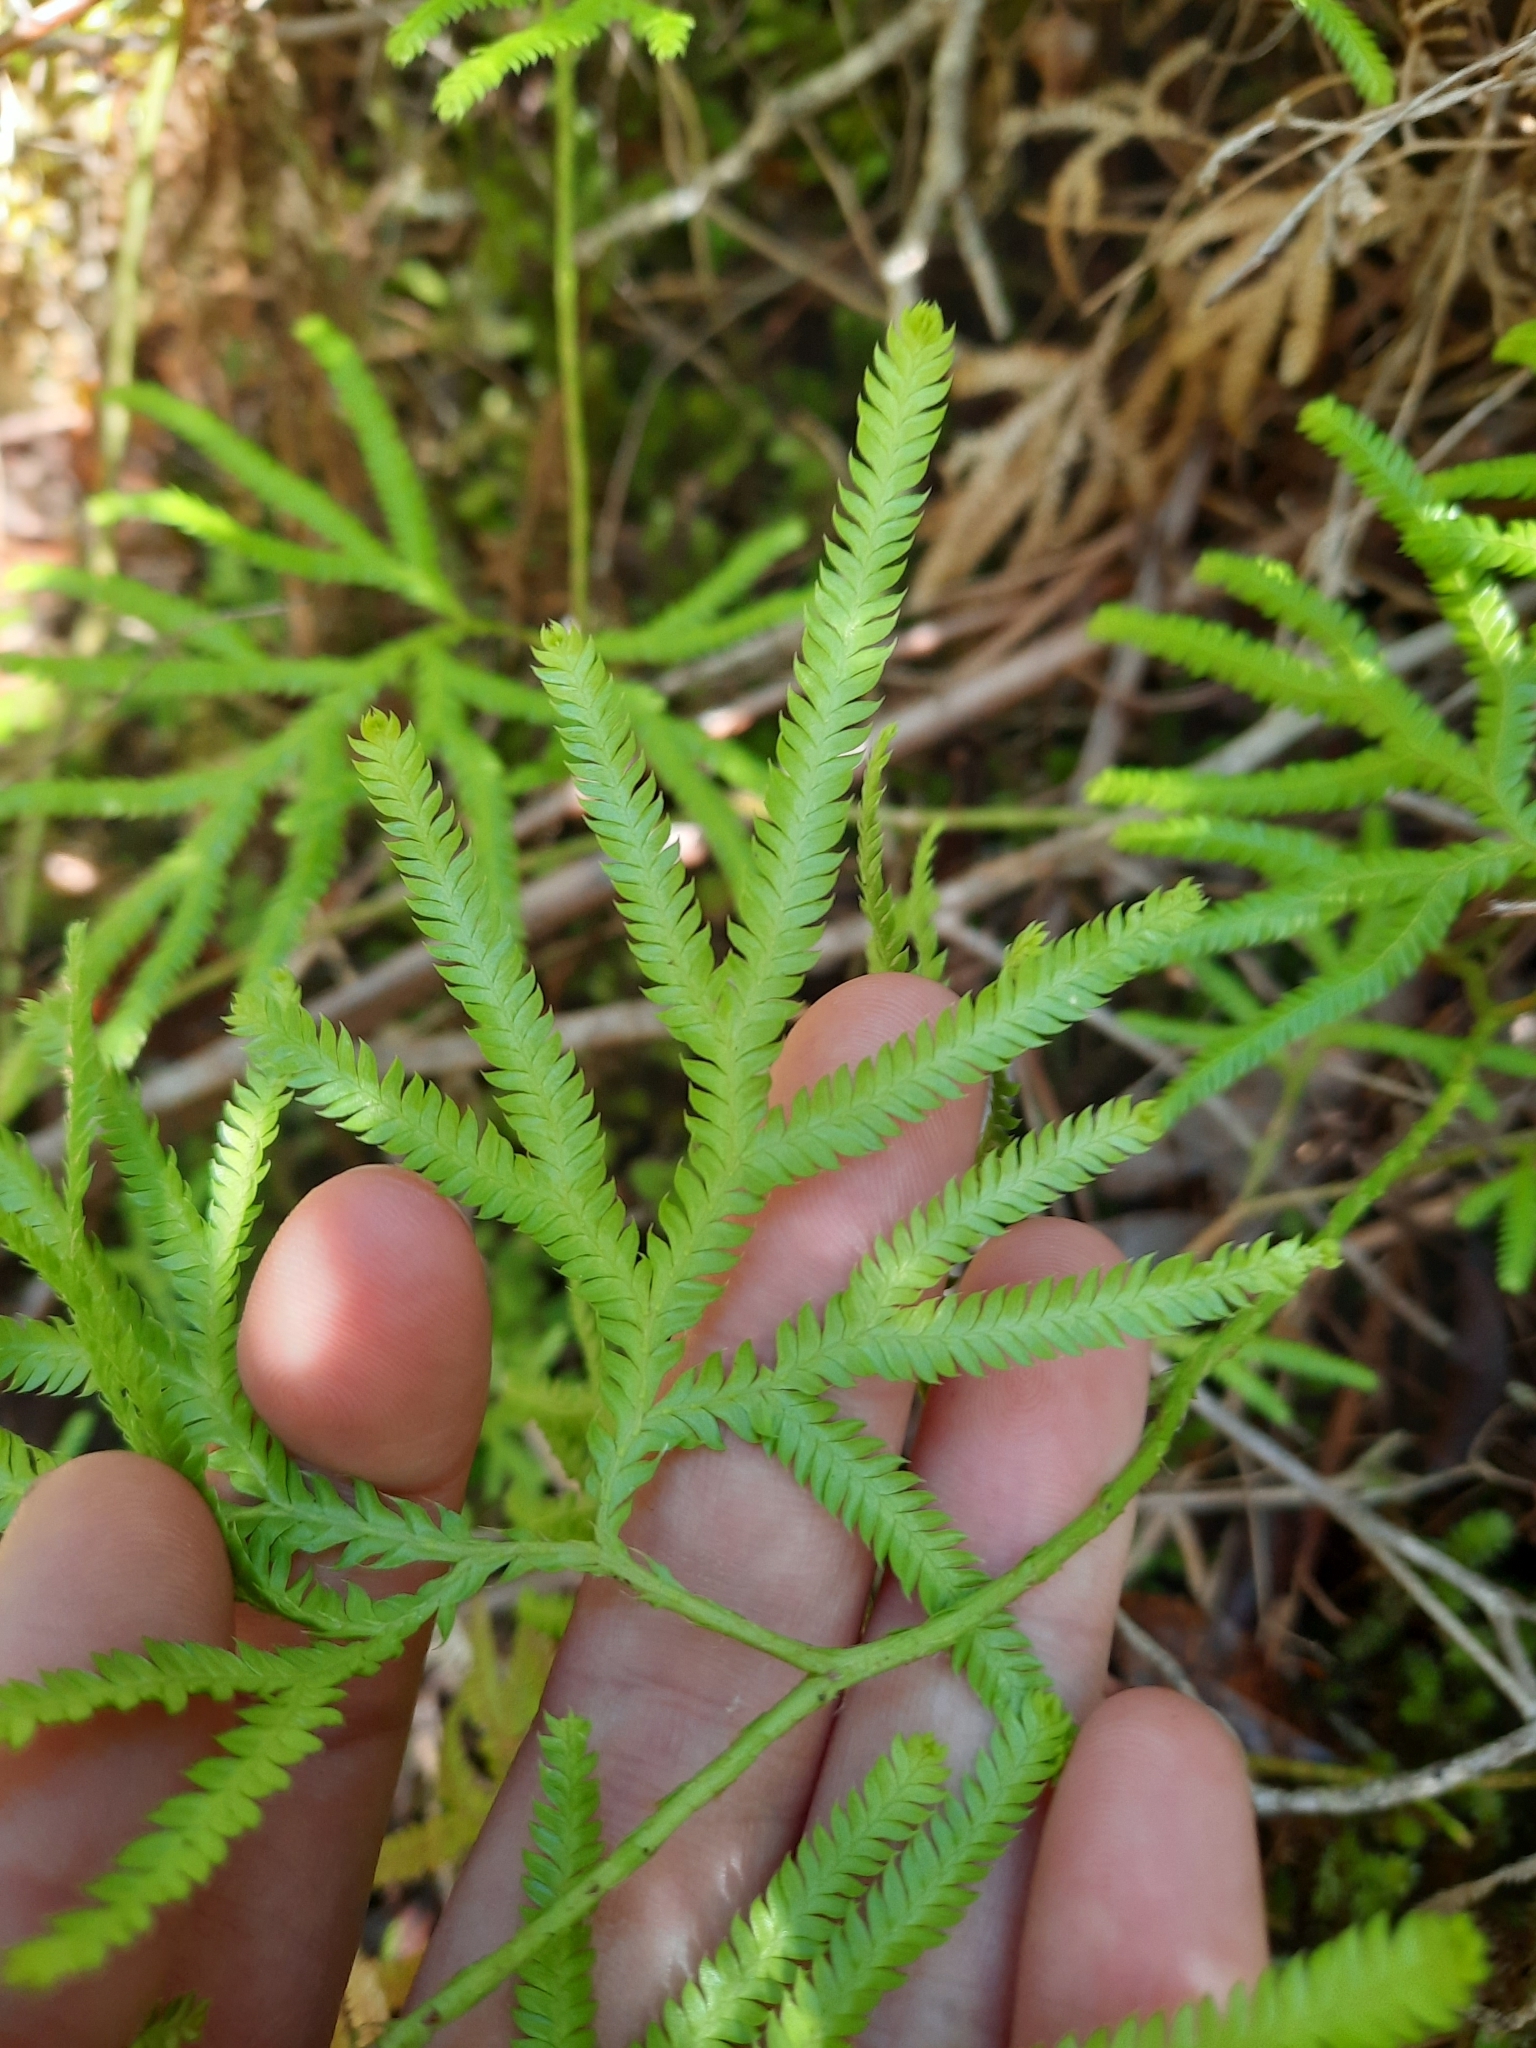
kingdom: Plantae
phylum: Tracheophyta
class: Lycopodiopsida
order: Lycopodiales
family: Lycopodiaceae
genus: Lycopodium
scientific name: Lycopodium volubile
